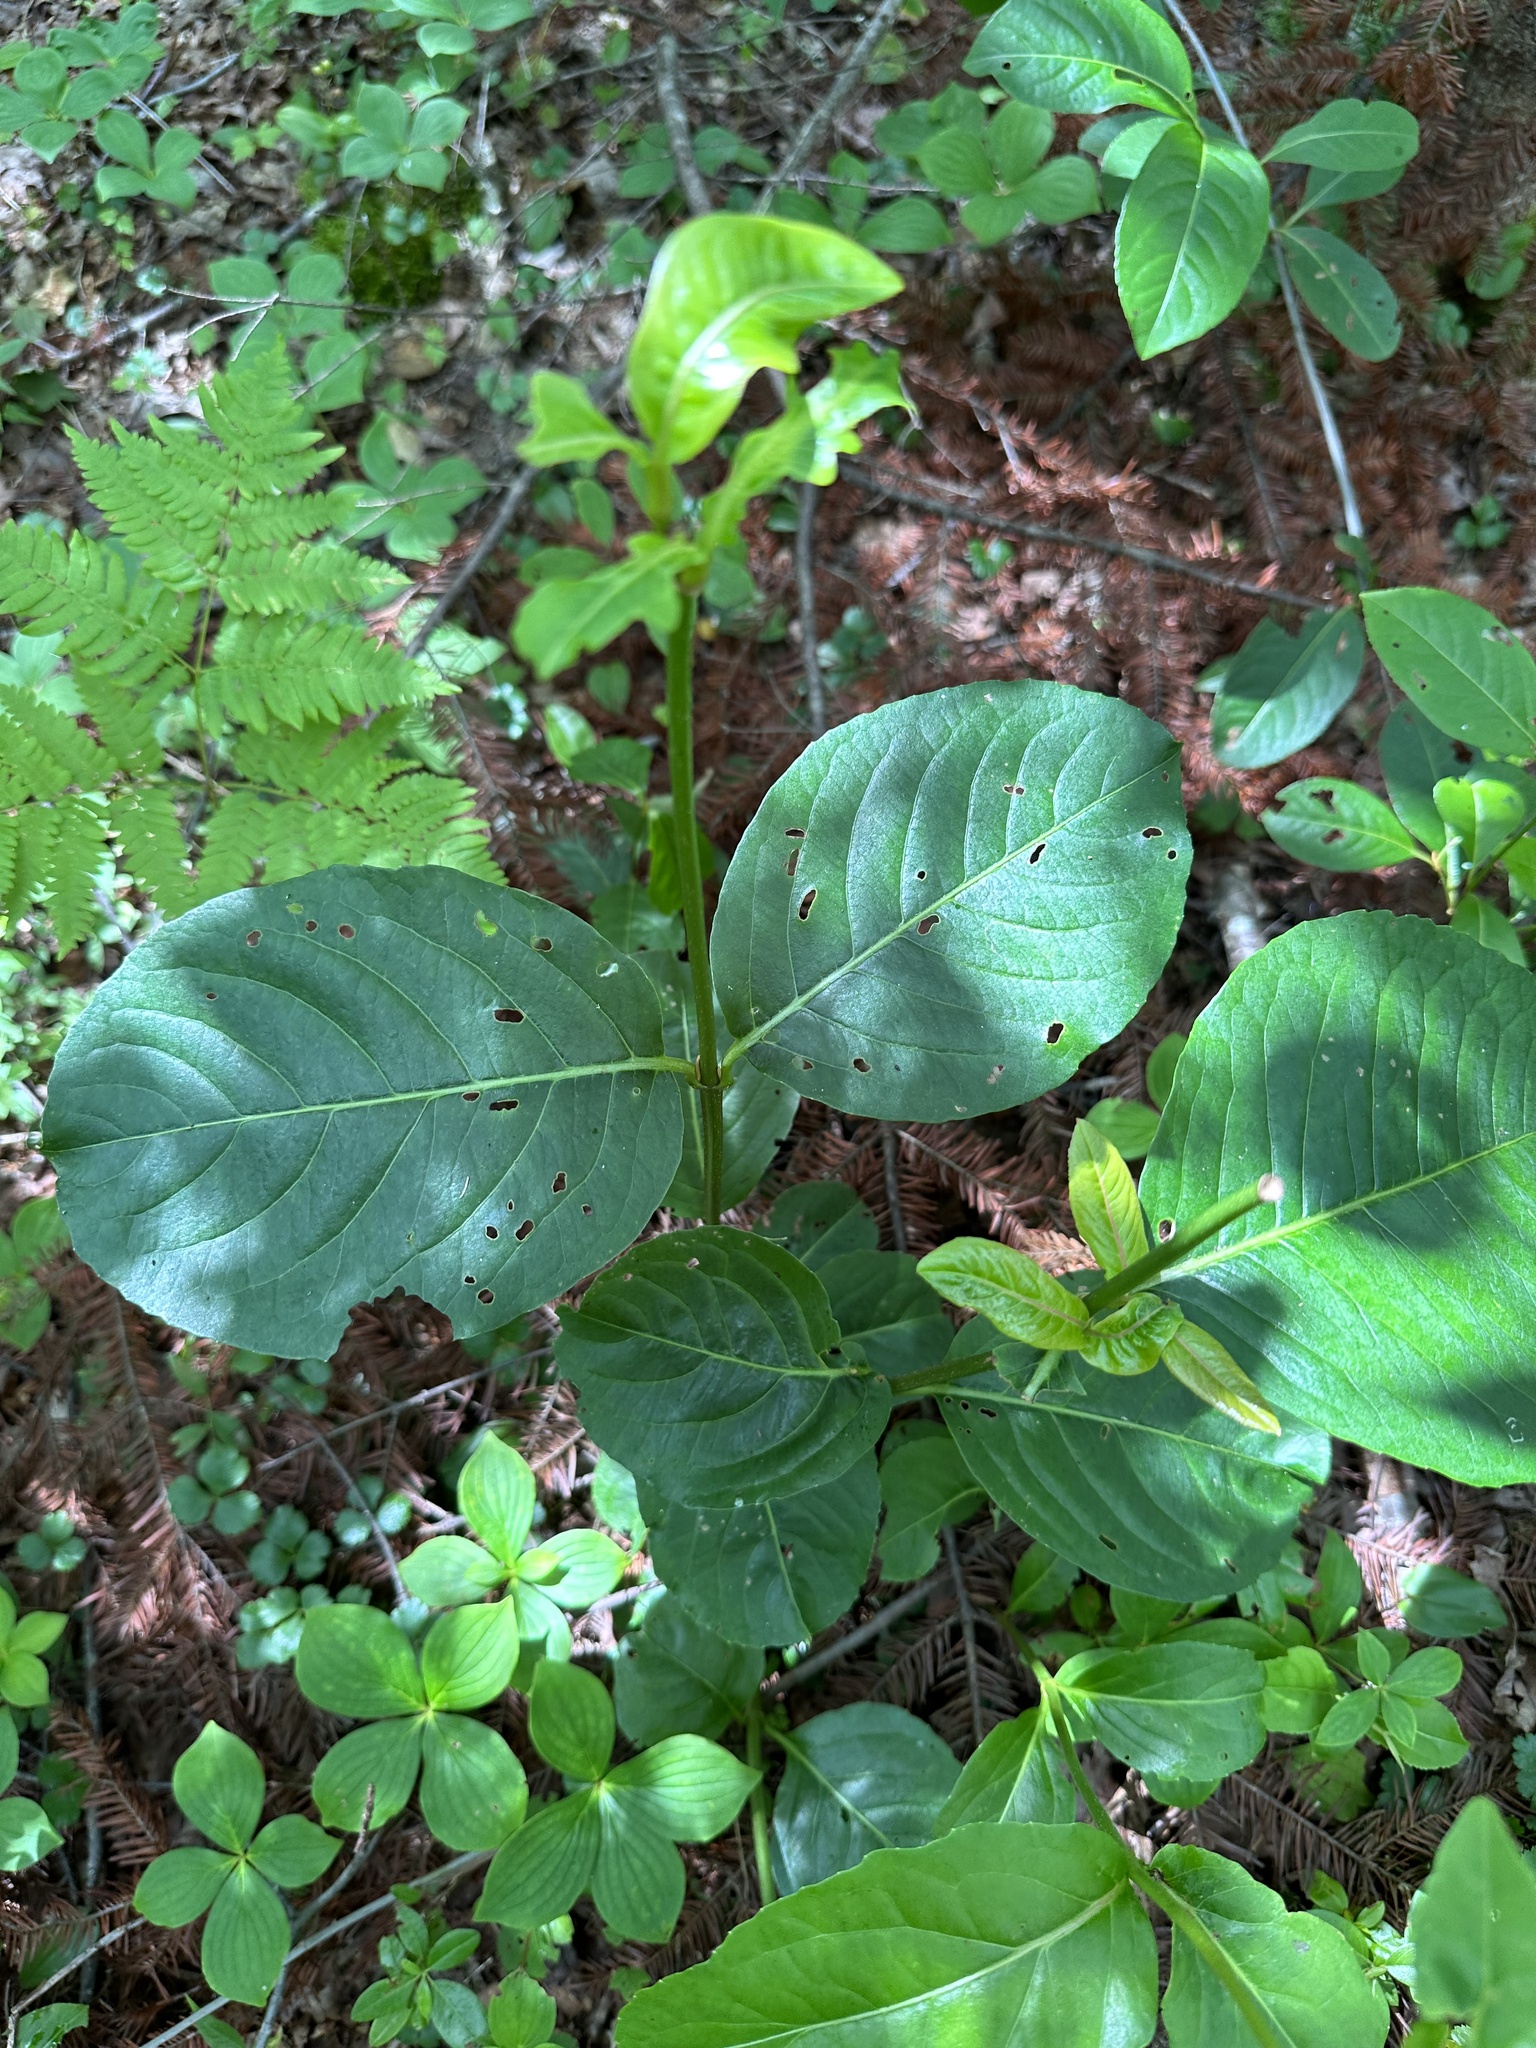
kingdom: Plantae
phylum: Tracheophyta
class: Magnoliopsida
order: Dipsacales
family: Viburnaceae
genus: Viburnum
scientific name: Viburnum cassinoides
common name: Swamp haw
